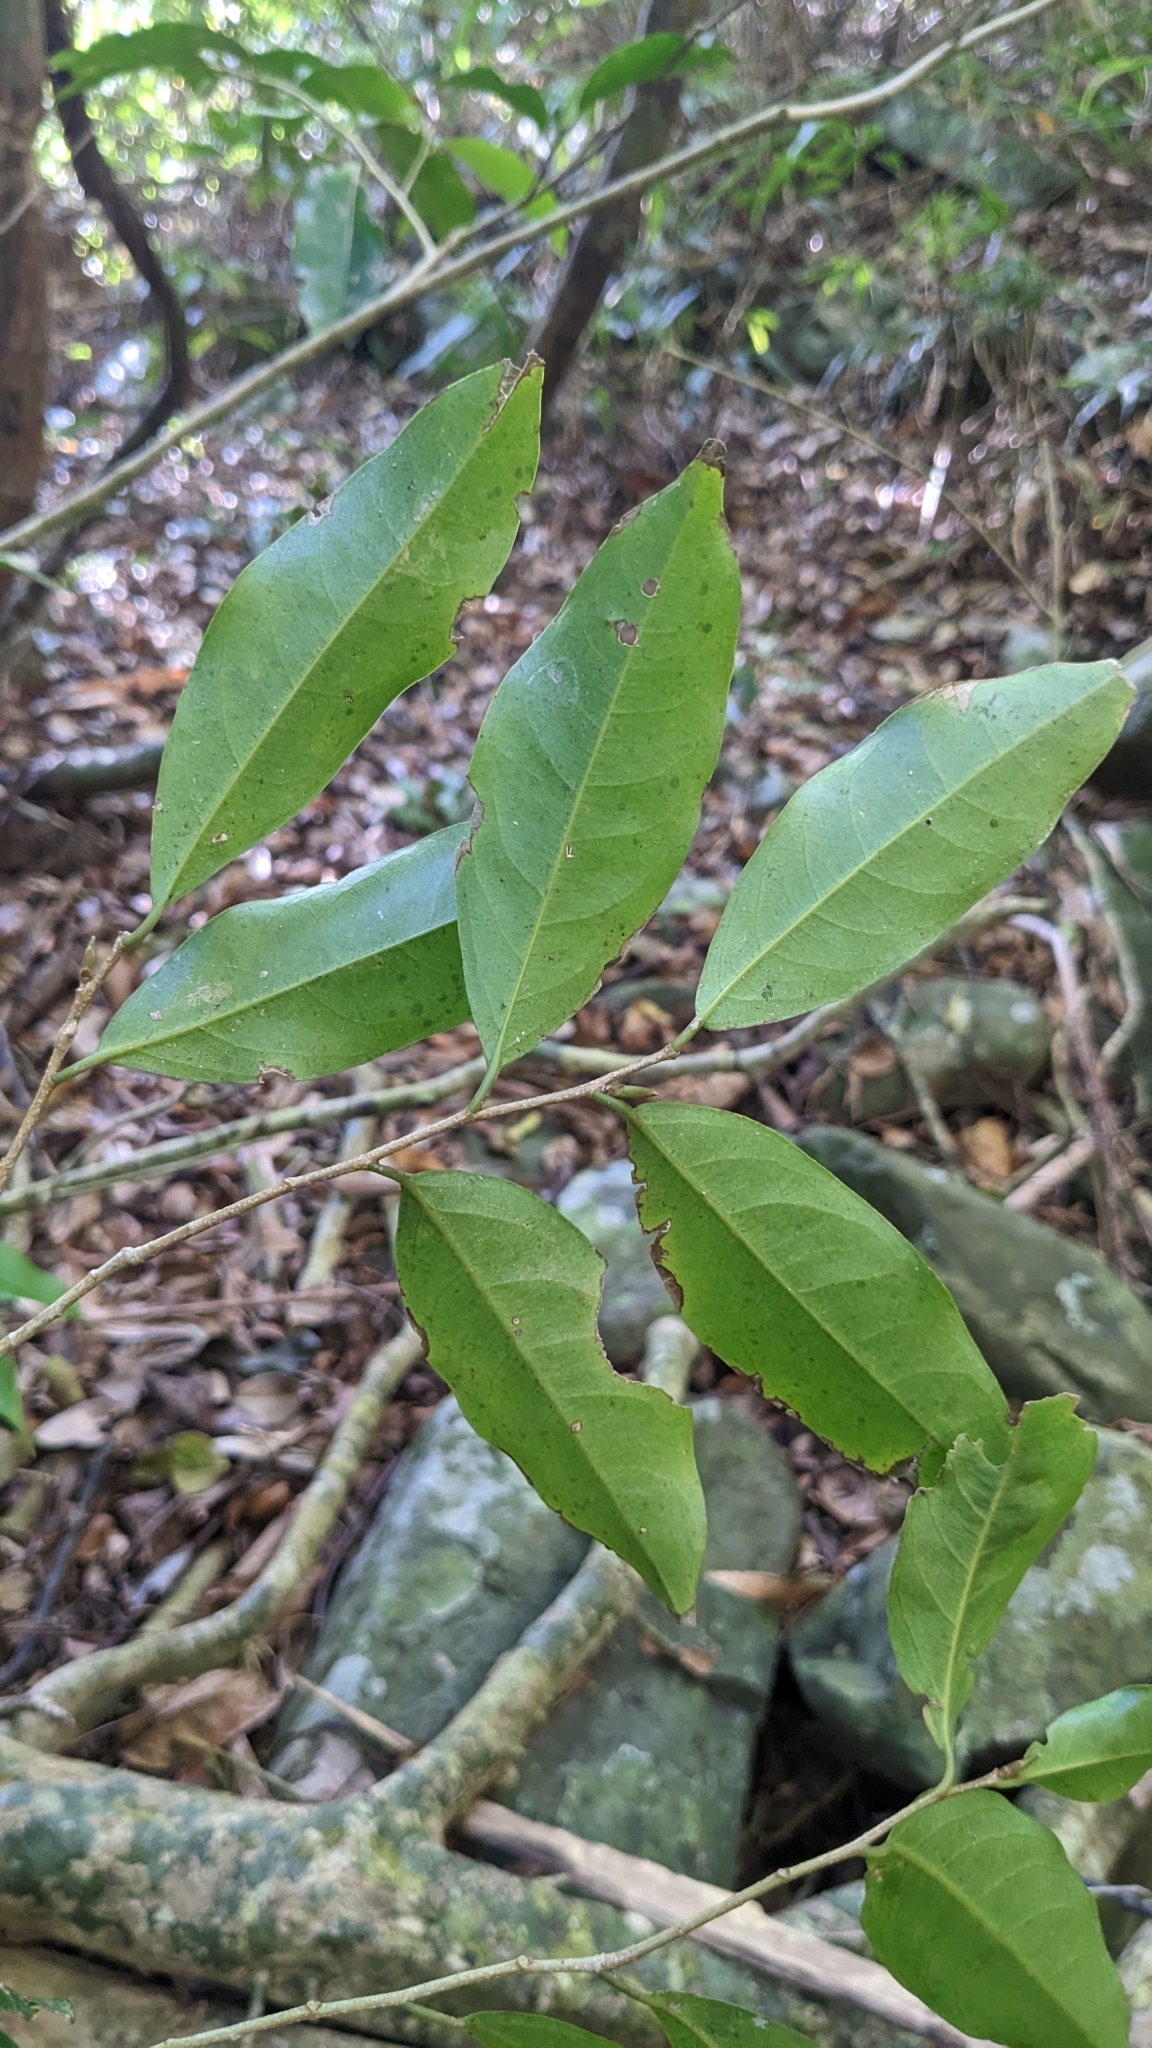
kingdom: Plantae
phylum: Tracheophyta
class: Magnoliopsida
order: Malpighiales
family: Putranjivaceae
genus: Drypetes
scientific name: Drypetes indica
